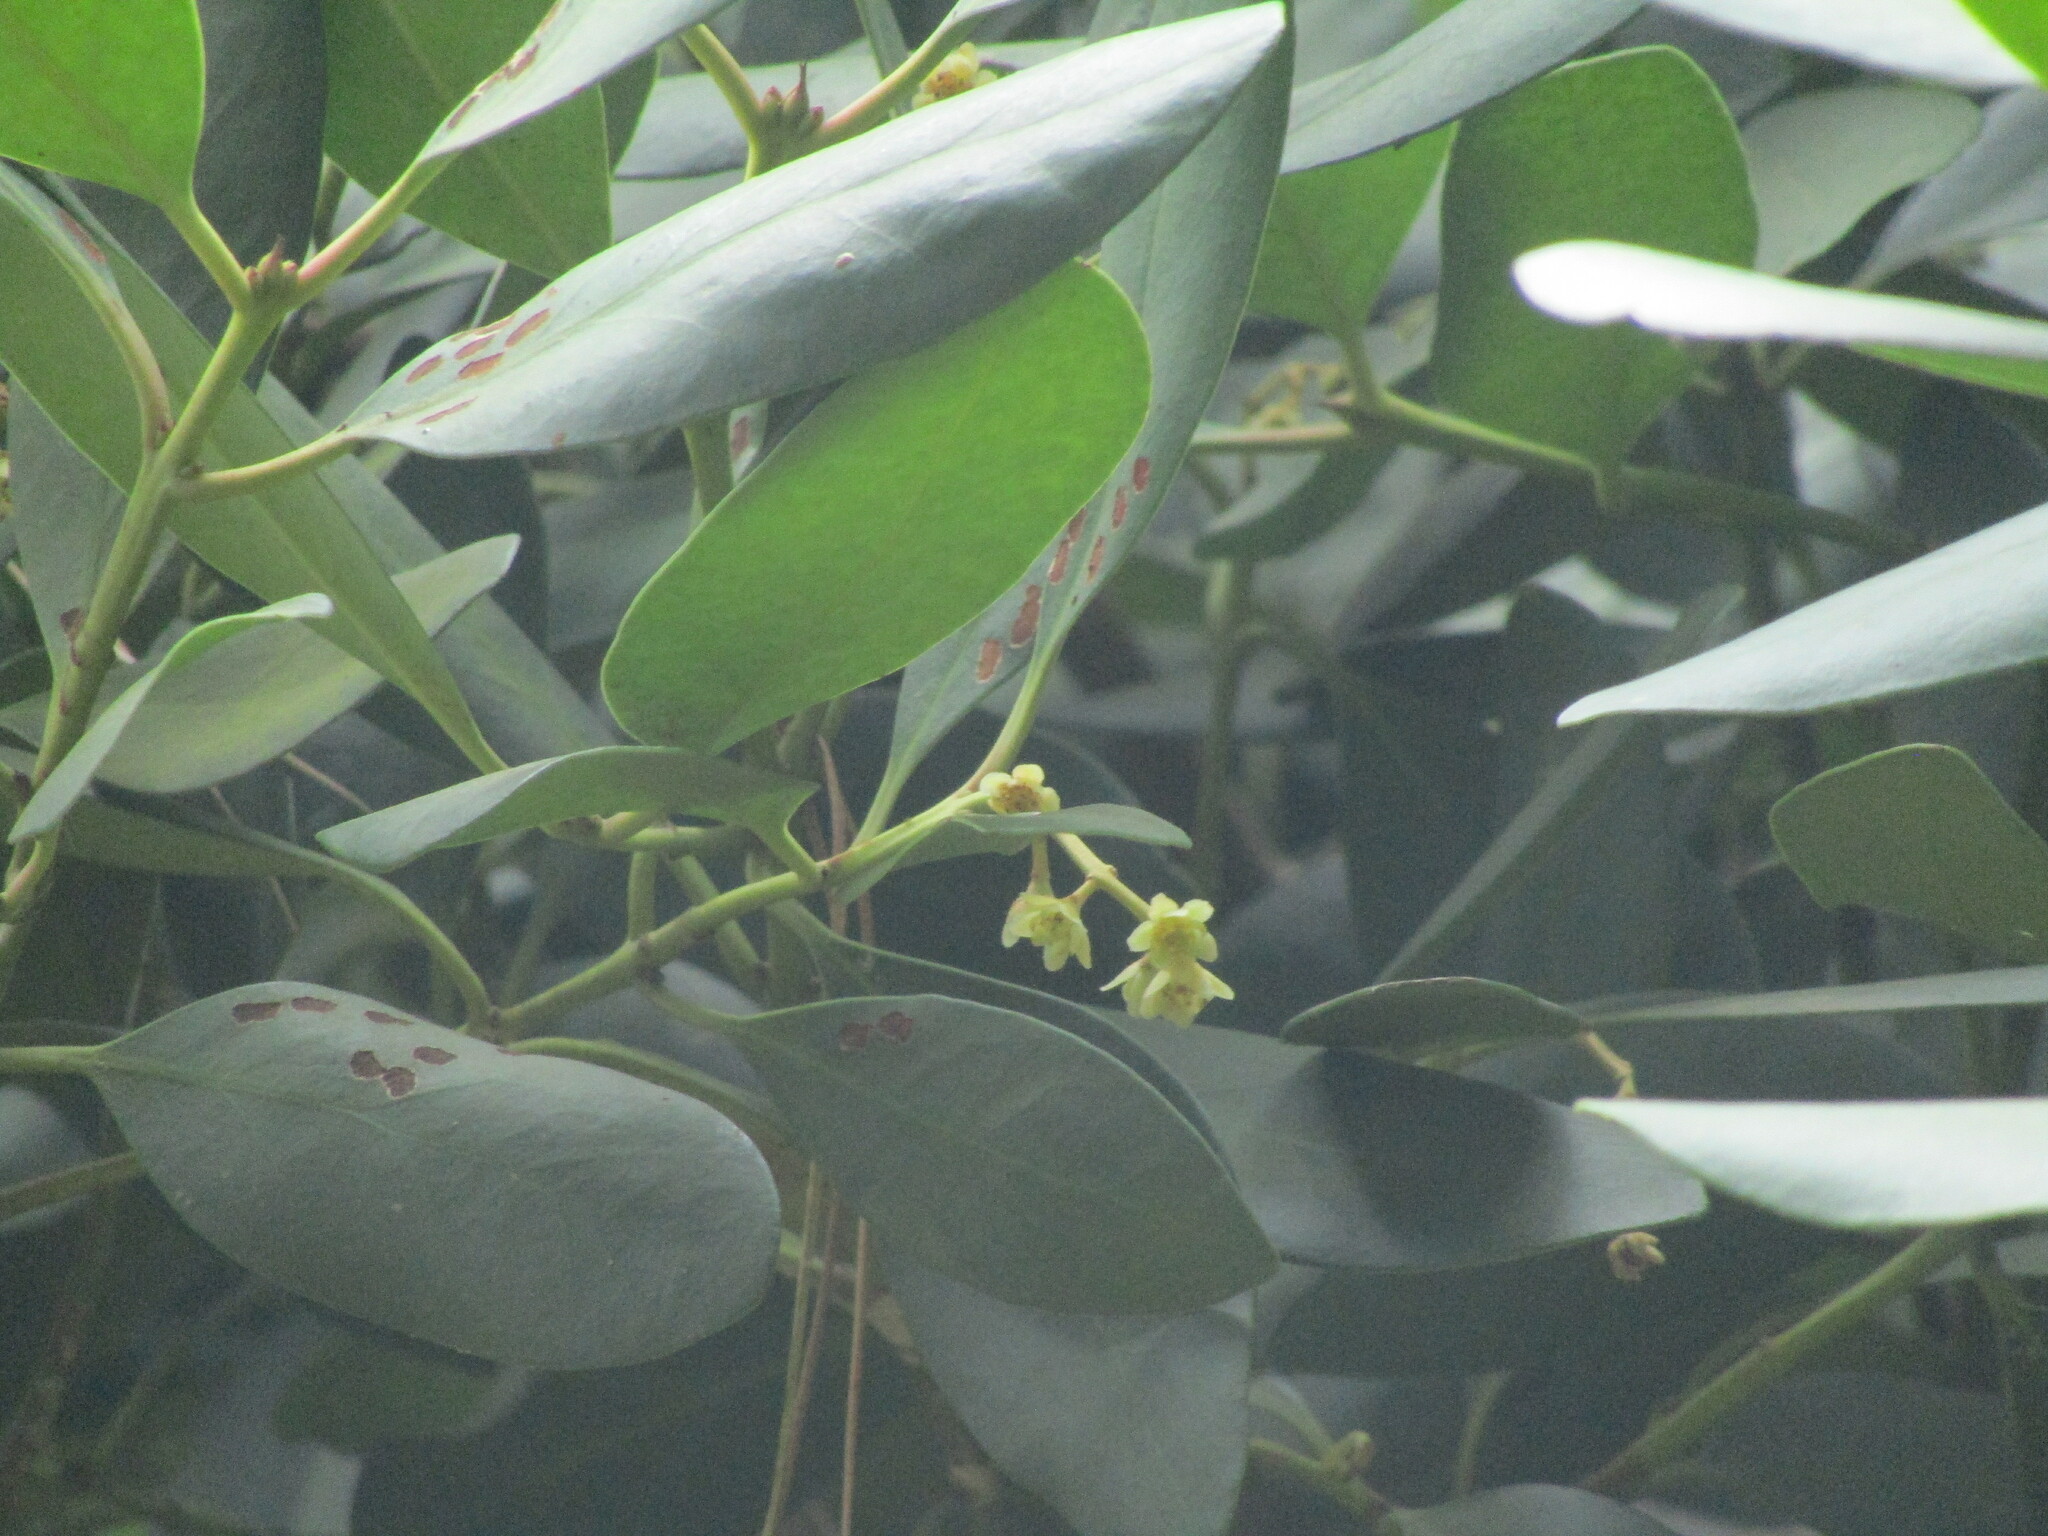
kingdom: Plantae
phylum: Tracheophyta
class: Magnoliopsida
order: Laurales
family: Gomortegaceae
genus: Gomortega
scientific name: Gomortega keule
